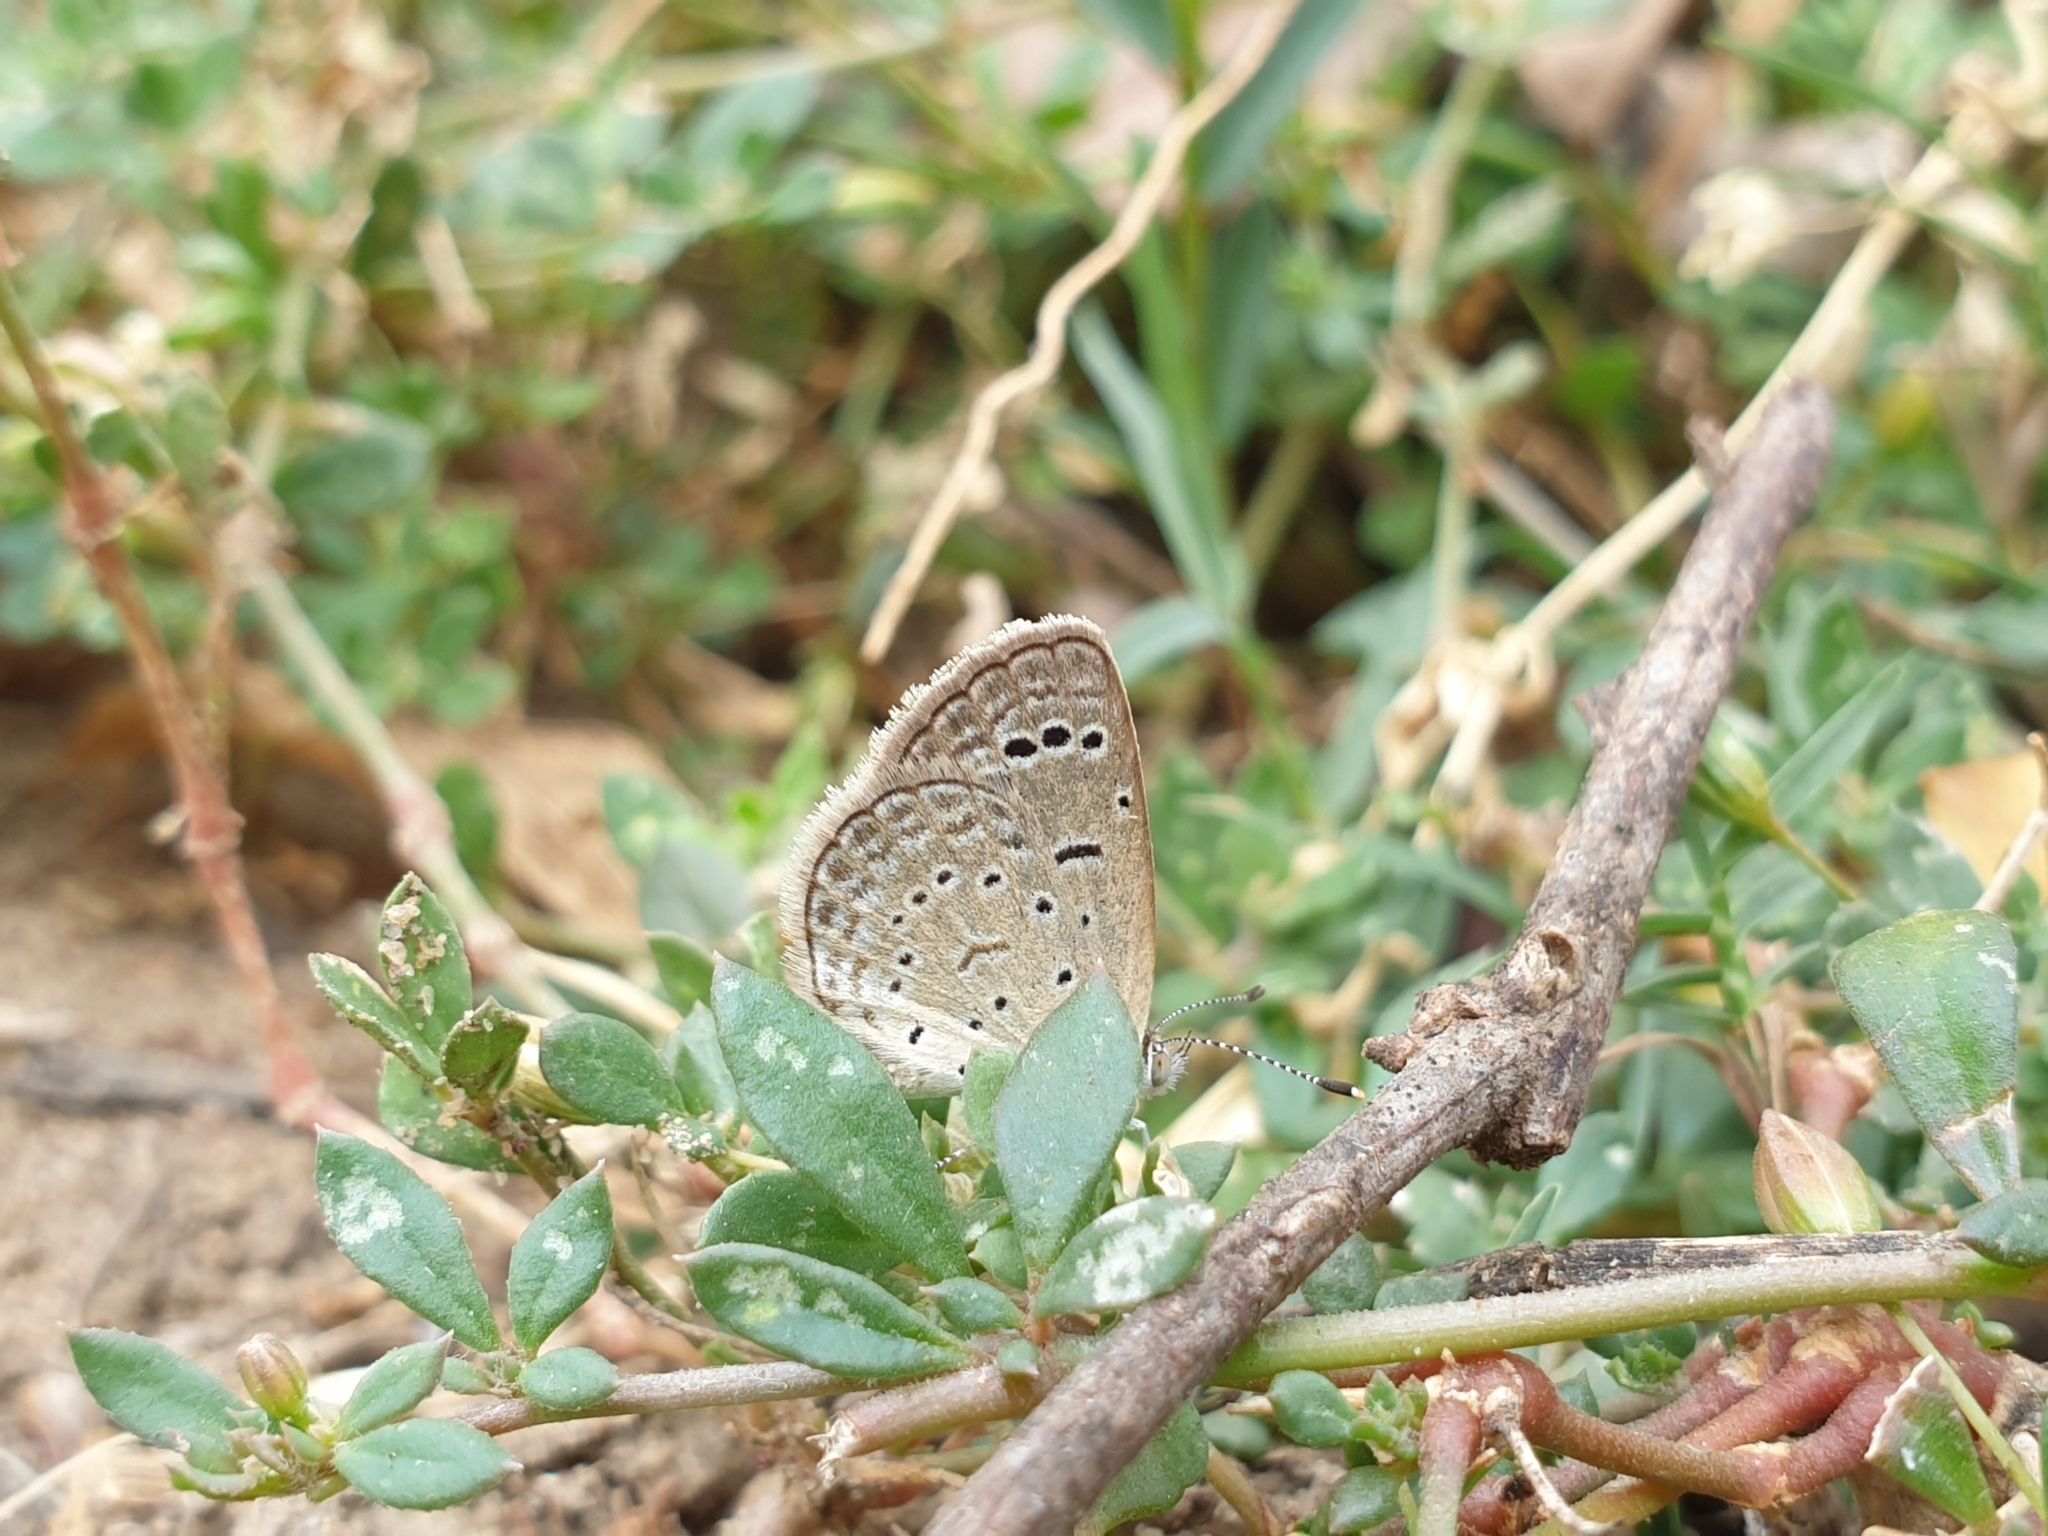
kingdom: Animalia
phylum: Arthropoda
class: Insecta
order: Lepidoptera
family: Lycaenidae
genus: Zizeeria
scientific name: Zizeeria karsandra
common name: Dark grass blue
